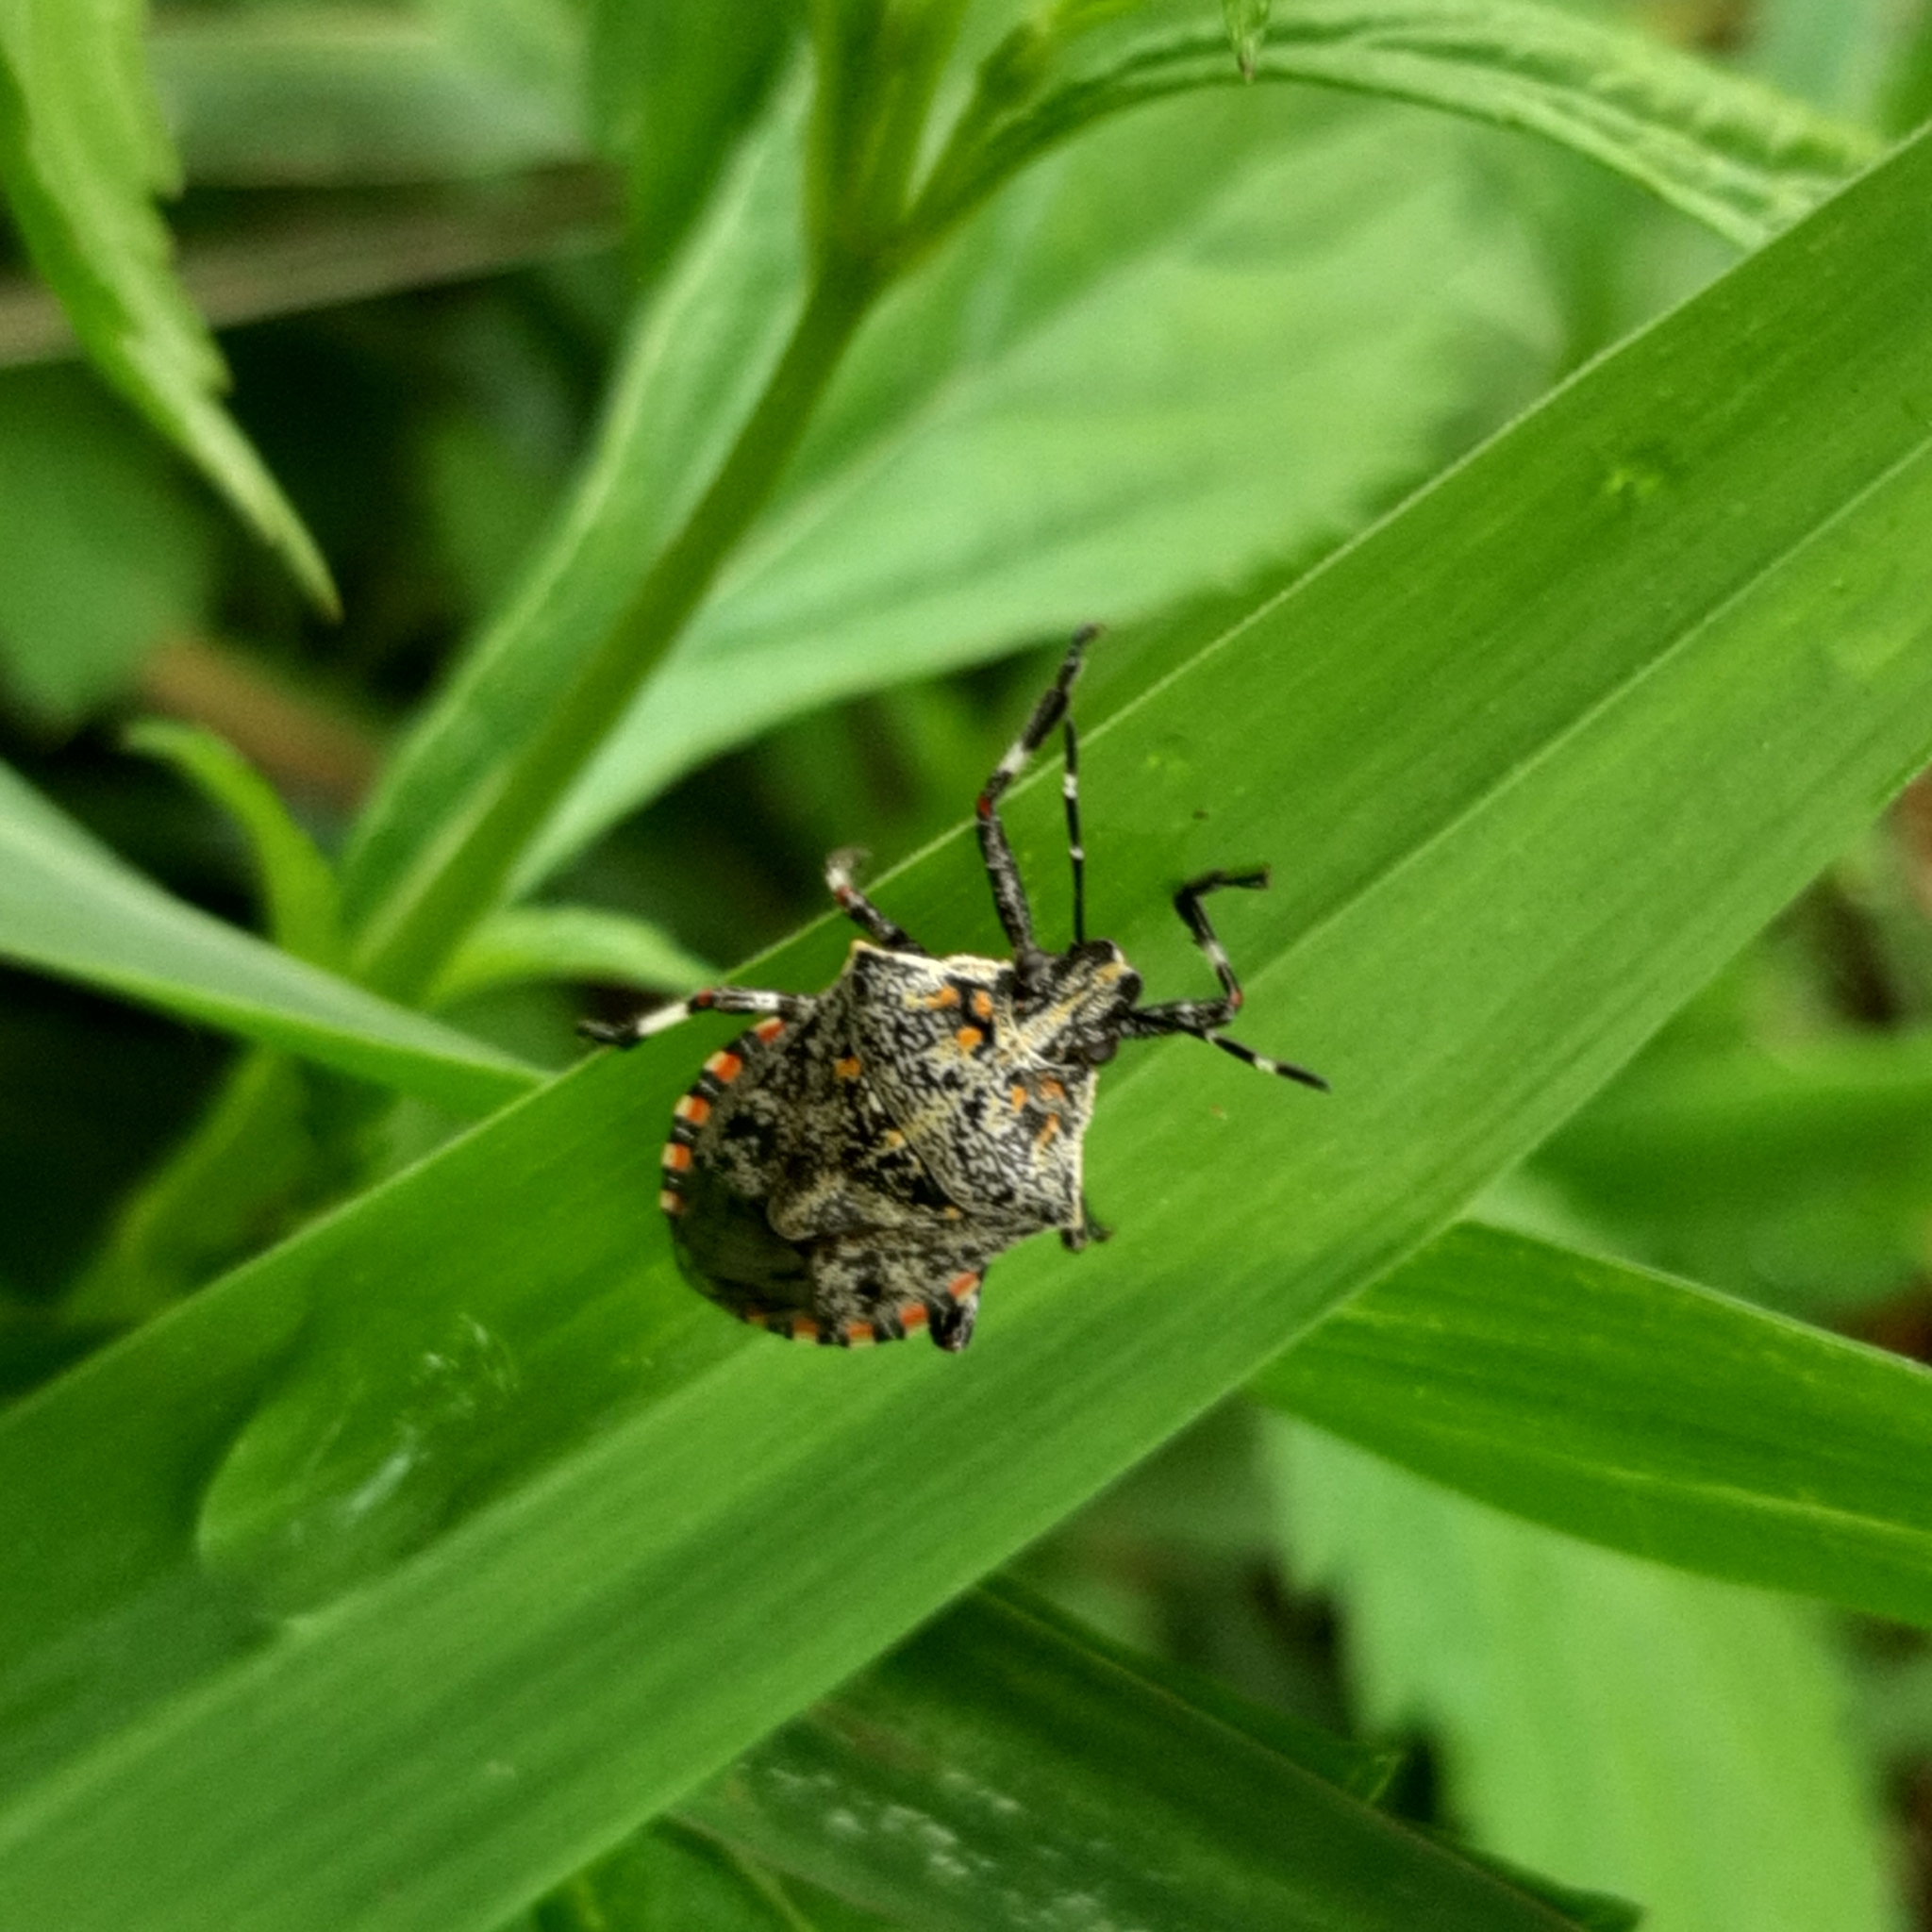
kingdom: Animalia
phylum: Arthropoda
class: Insecta
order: Hemiptera
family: Pentatomidae
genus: Apateticus
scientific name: Apateticus lineolatus
